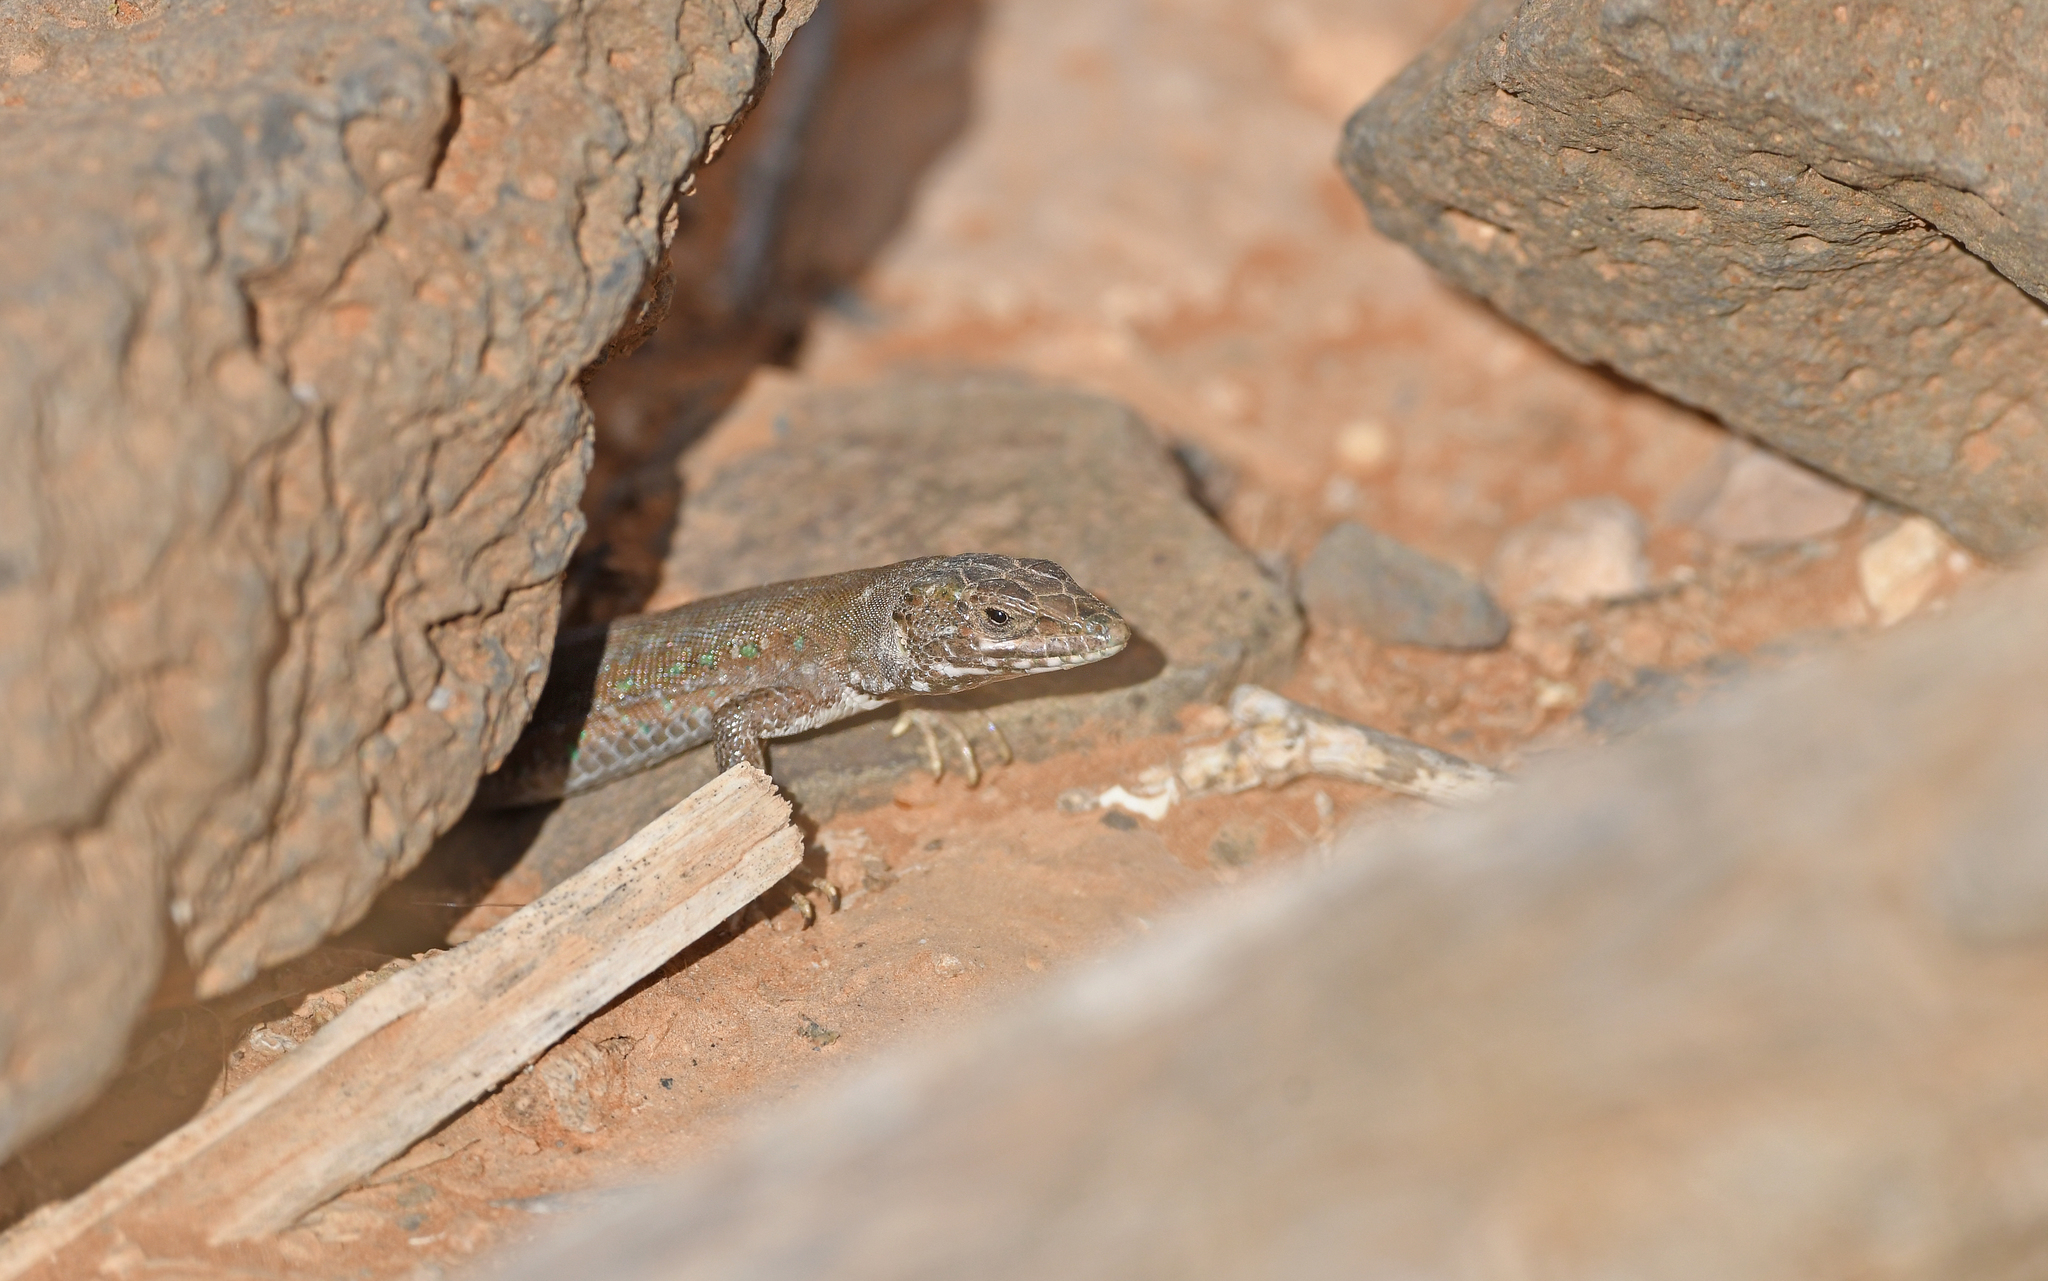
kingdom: Animalia
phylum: Chordata
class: Squamata
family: Lacertidae
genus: Gallotia
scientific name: Gallotia atlantica
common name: Atlantic lizard
